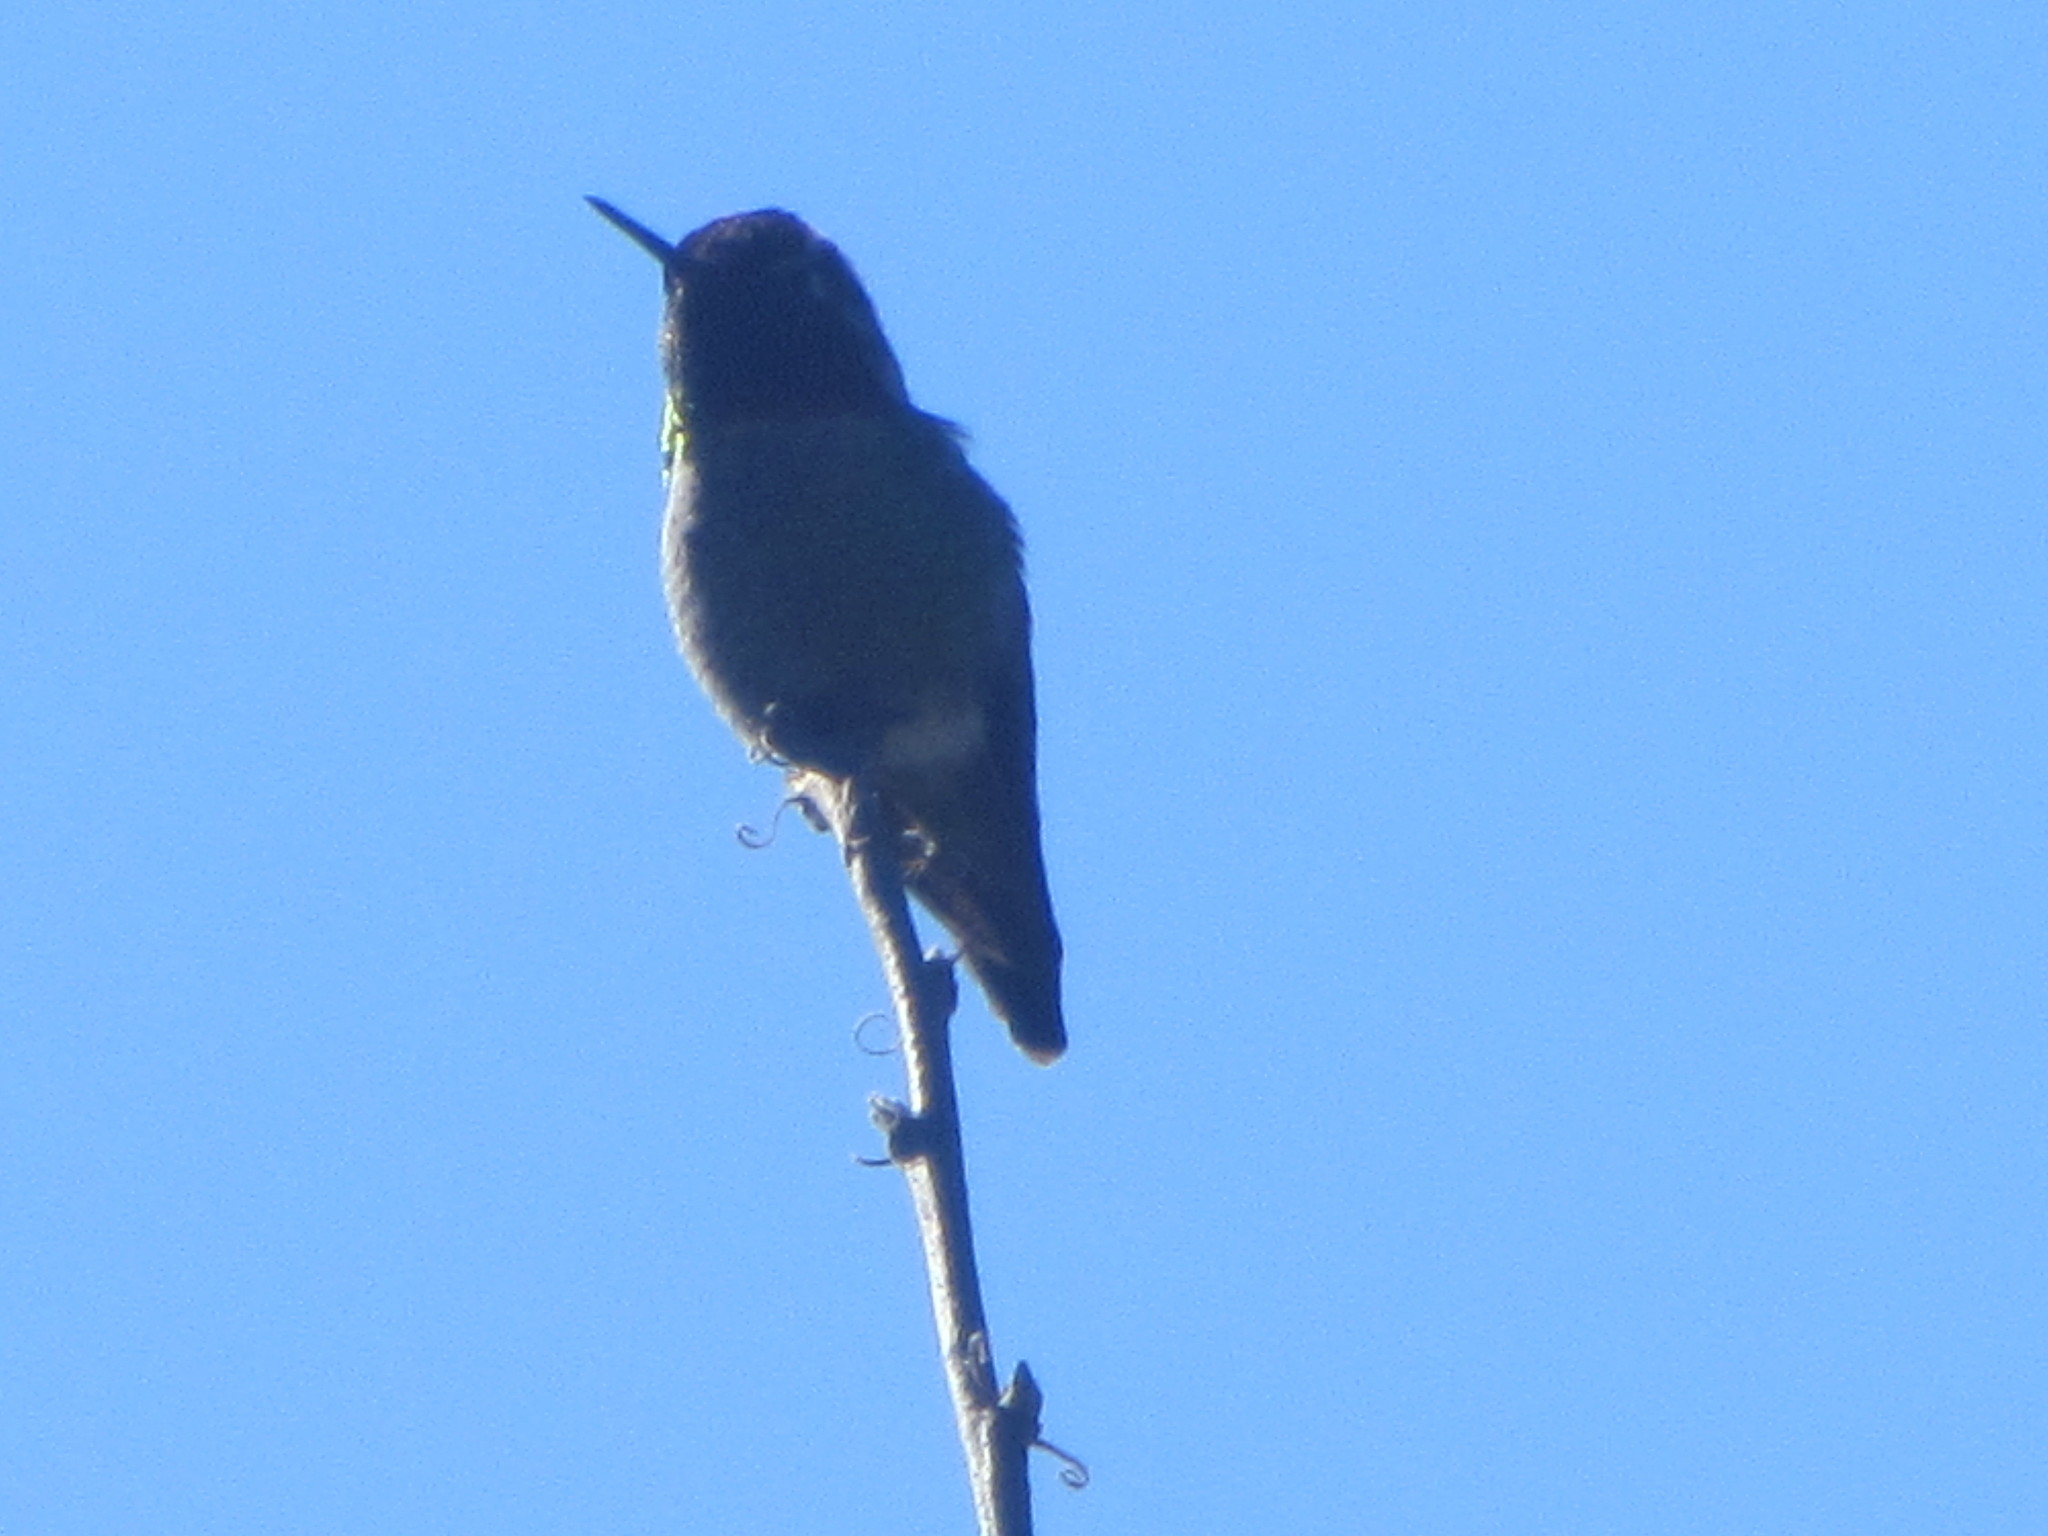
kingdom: Animalia
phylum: Chordata
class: Aves
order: Apodiformes
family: Trochilidae
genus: Calypte
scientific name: Calypte anna
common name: Anna's hummingbird
